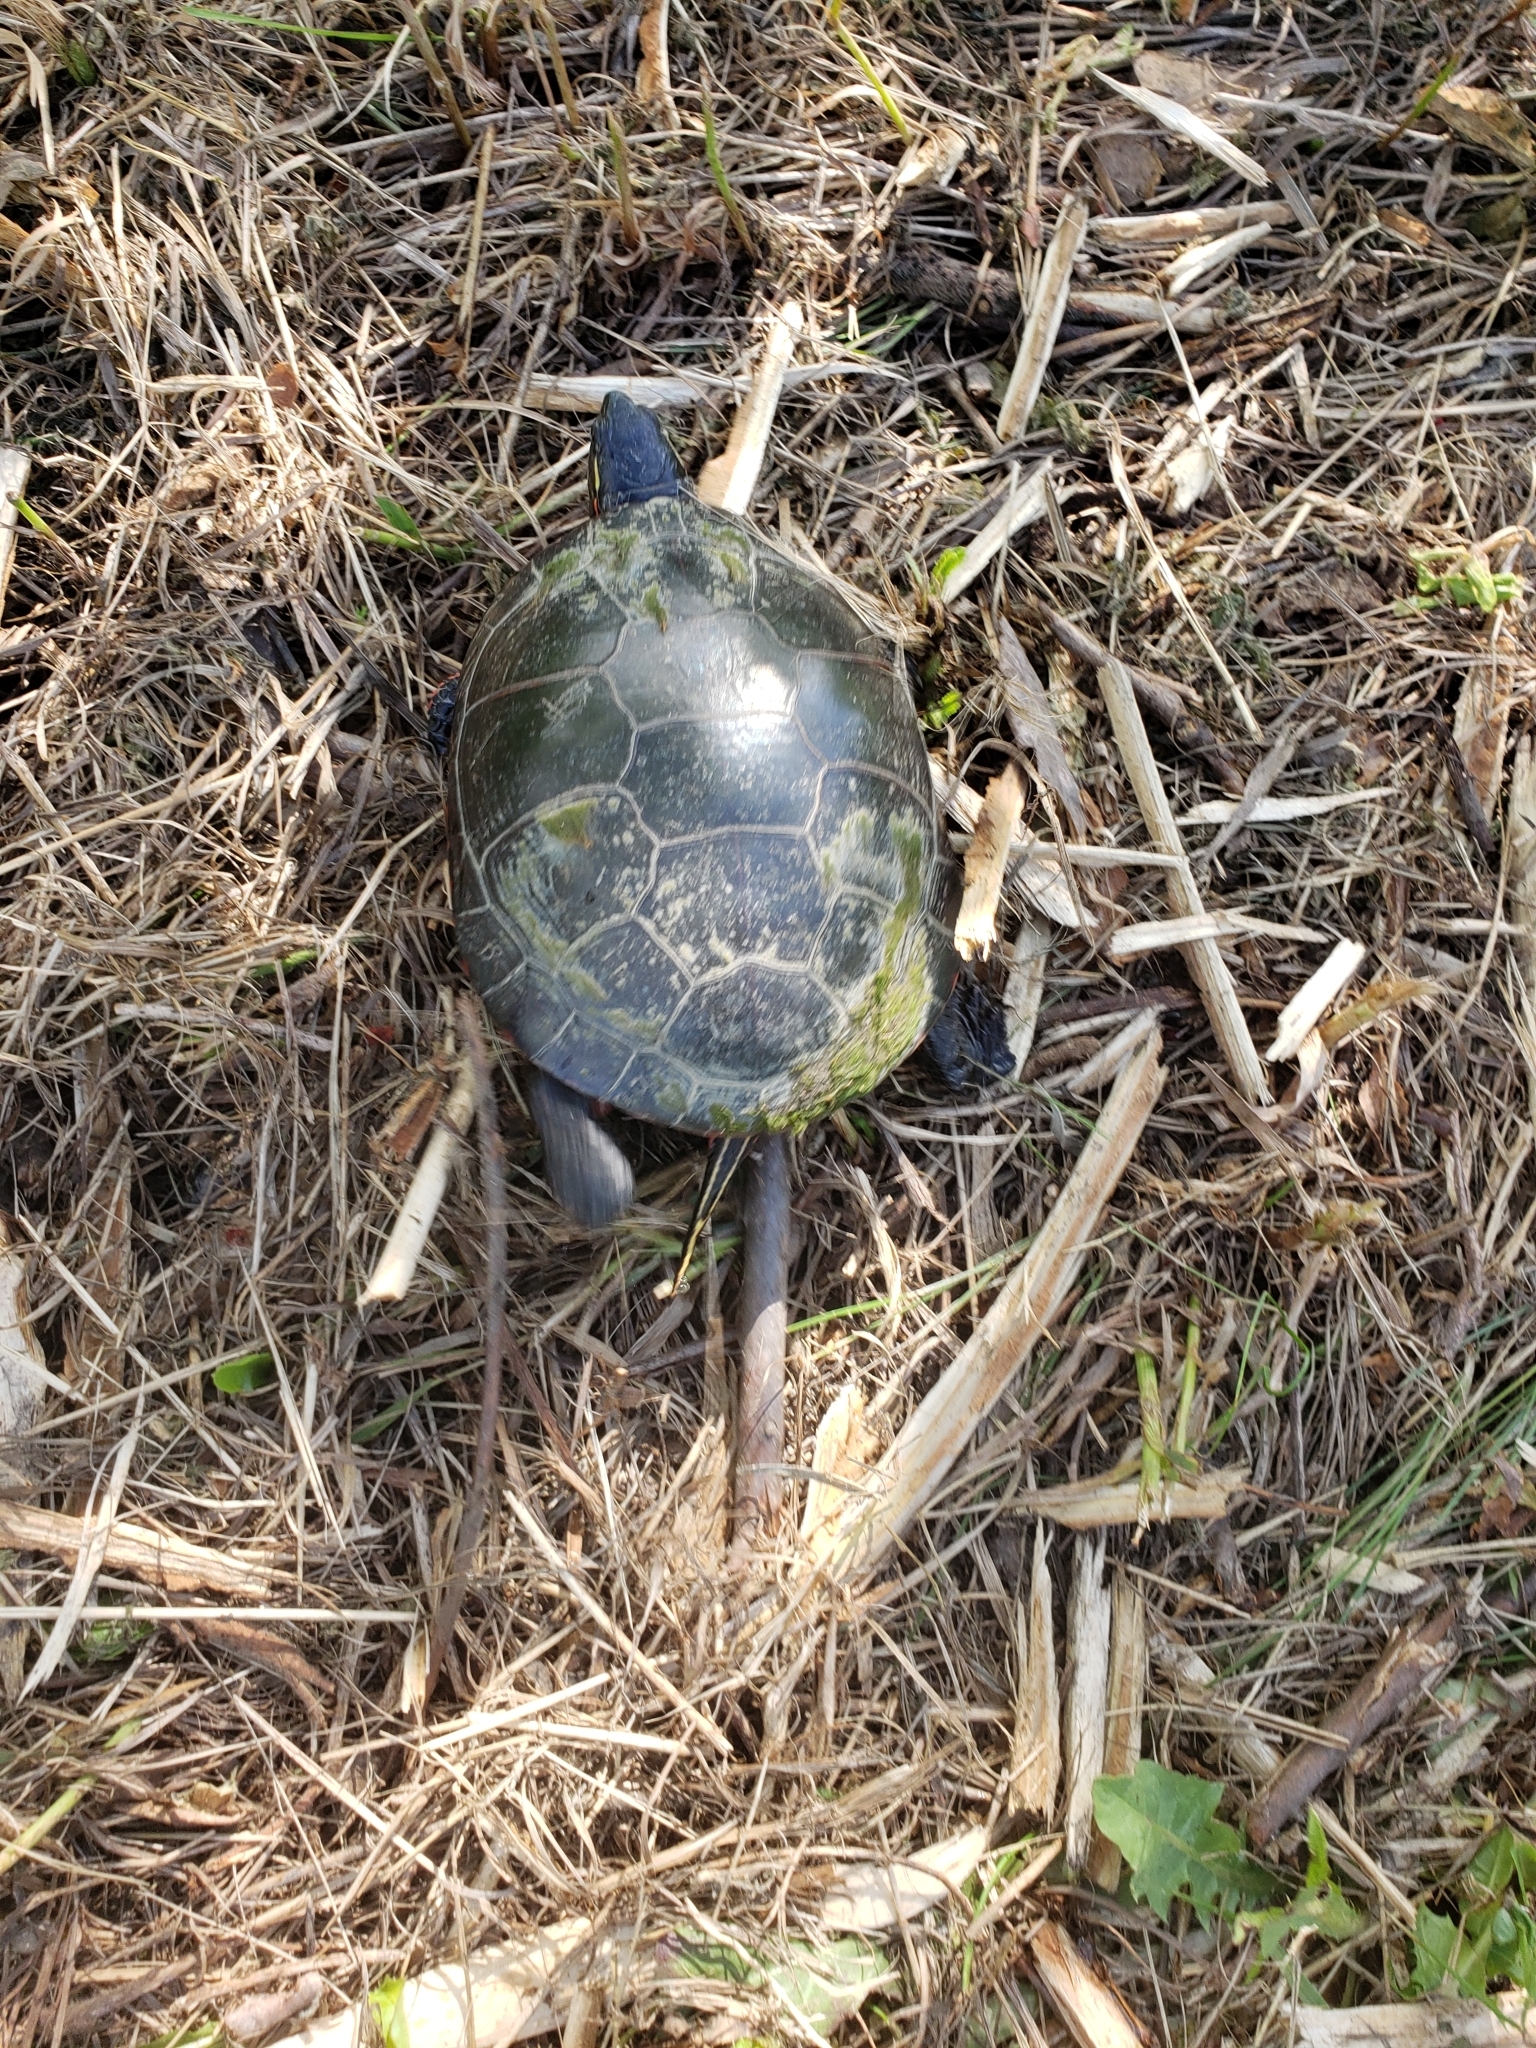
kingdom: Animalia
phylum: Chordata
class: Testudines
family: Emydidae
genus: Chrysemys
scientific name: Chrysemys picta
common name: Painted turtle
